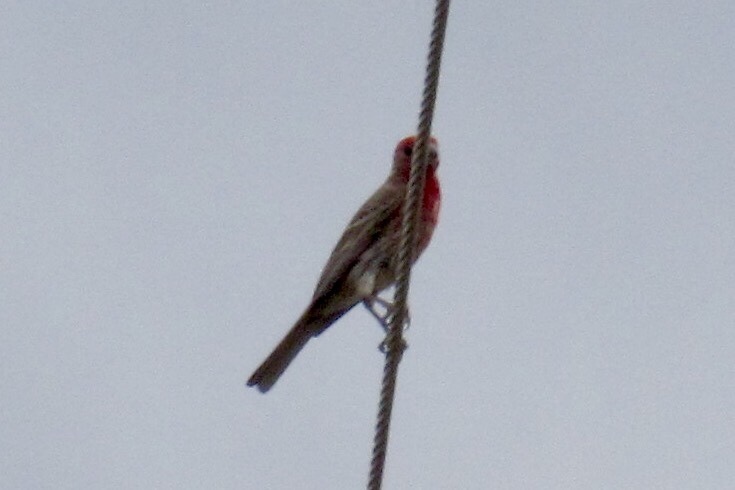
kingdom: Animalia
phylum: Chordata
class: Aves
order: Passeriformes
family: Fringillidae
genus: Haemorhous
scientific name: Haemorhous mexicanus
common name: House finch
